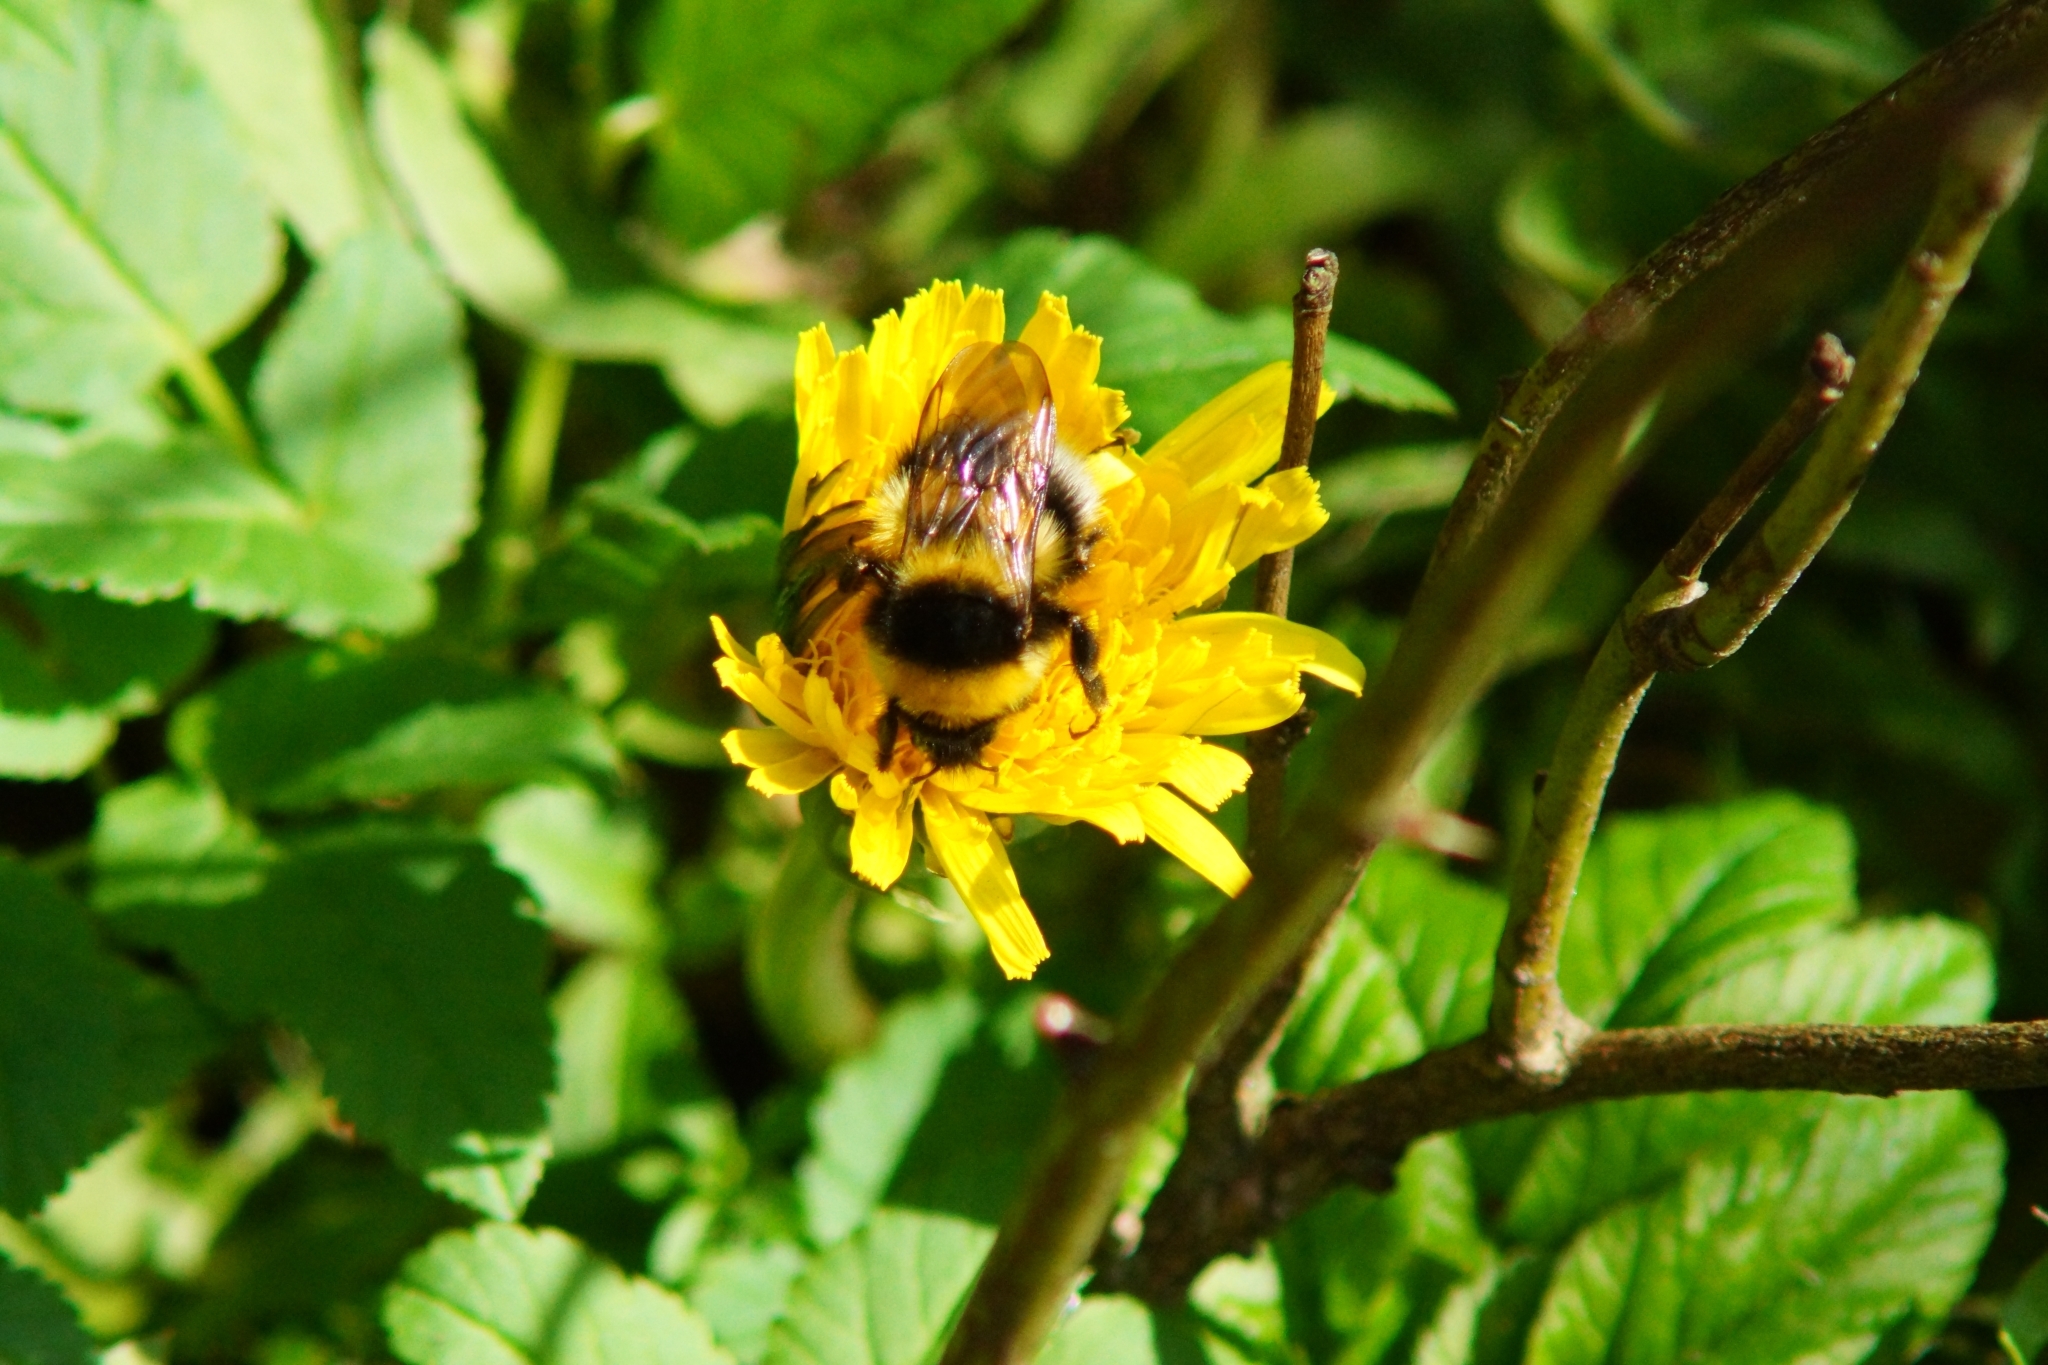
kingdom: Animalia
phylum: Arthropoda
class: Insecta
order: Hymenoptera
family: Apidae
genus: Bombus
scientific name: Bombus hortorum
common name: Garden bumblebee
